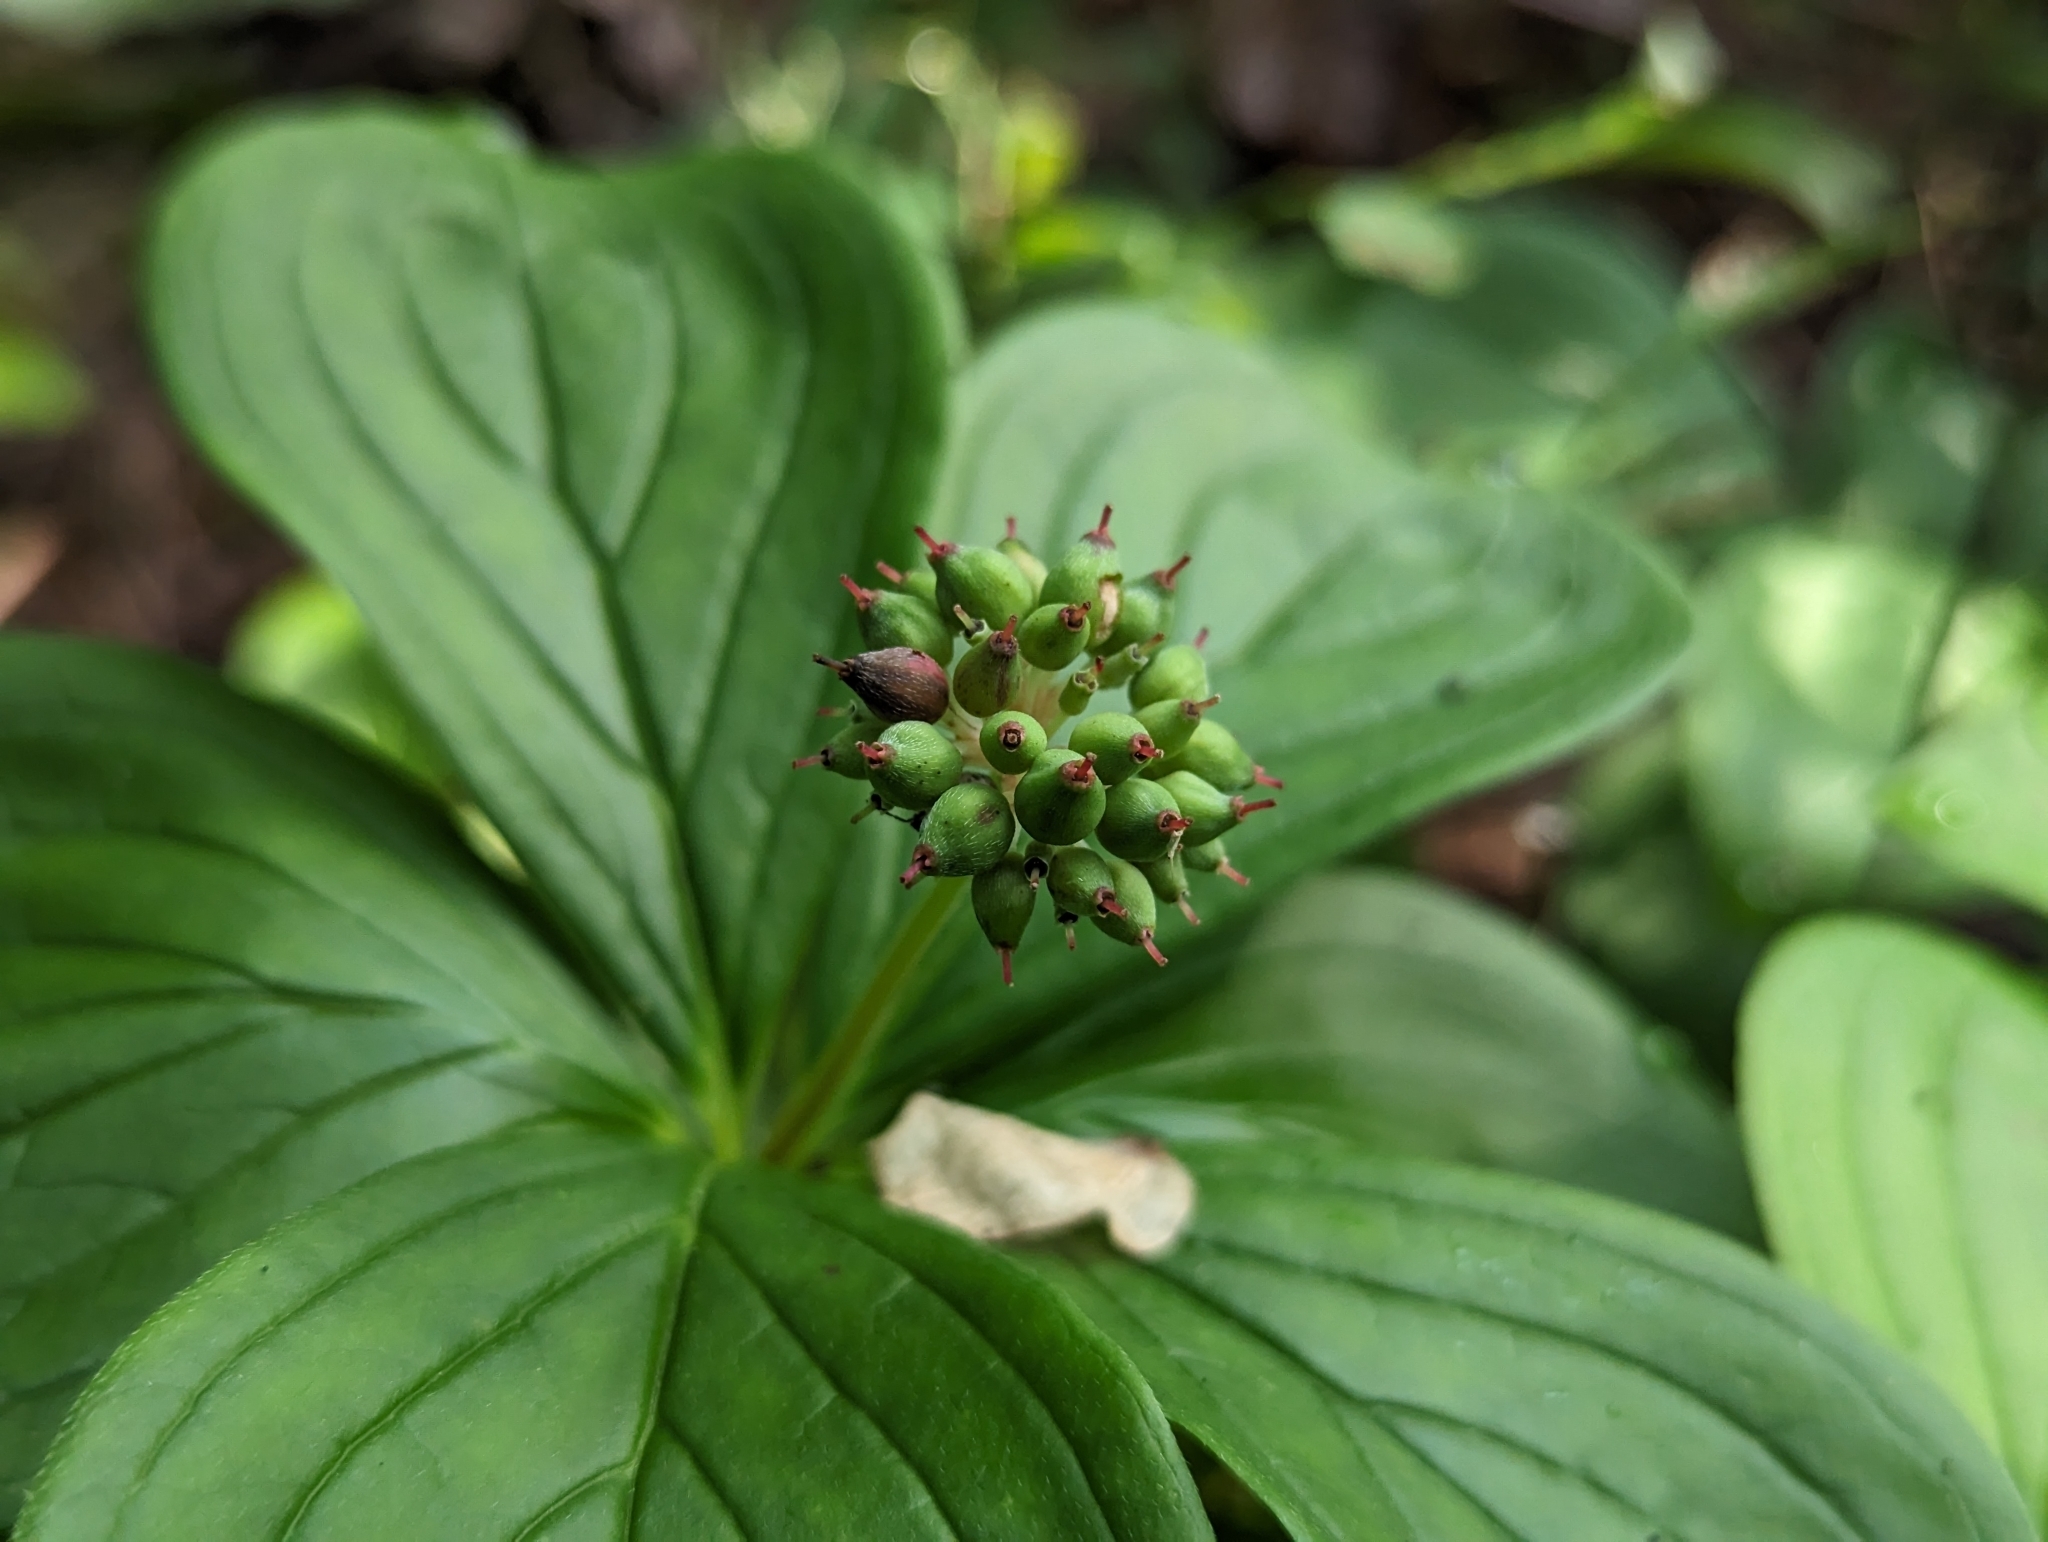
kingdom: Plantae
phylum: Tracheophyta
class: Magnoliopsida
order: Cornales
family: Cornaceae
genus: Cornus
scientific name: Cornus canadensis
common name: Creeping dogwood
